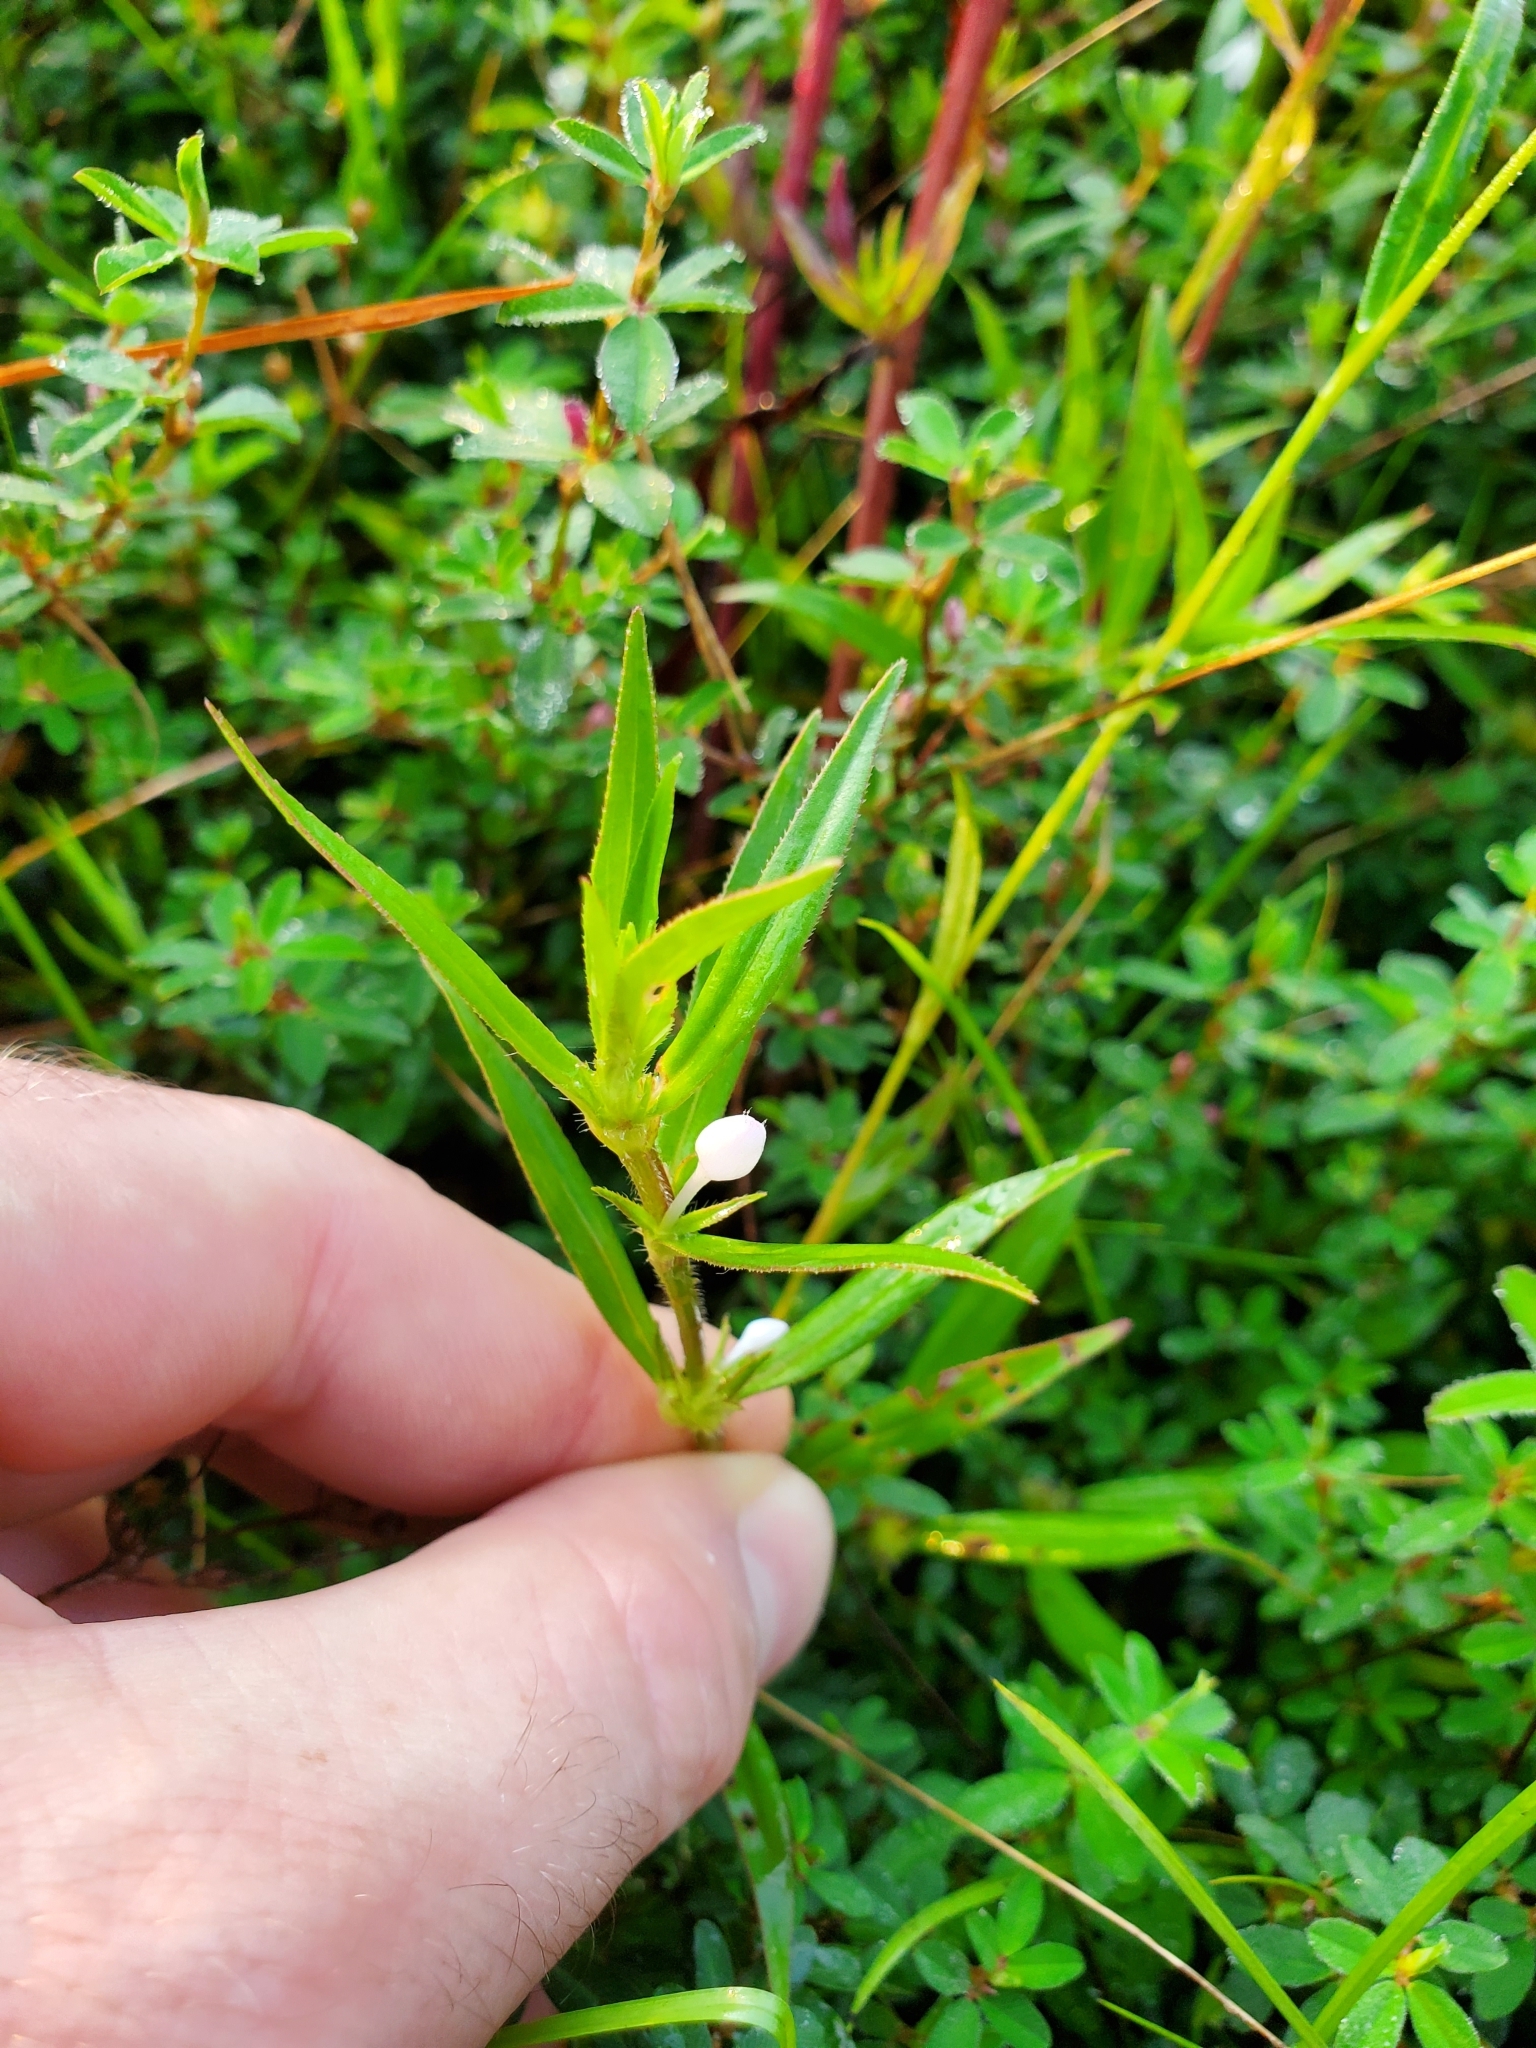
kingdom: Plantae
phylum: Tracheophyta
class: Magnoliopsida
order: Gentianales
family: Rubiaceae
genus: Diodia
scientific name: Diodia virginiana
